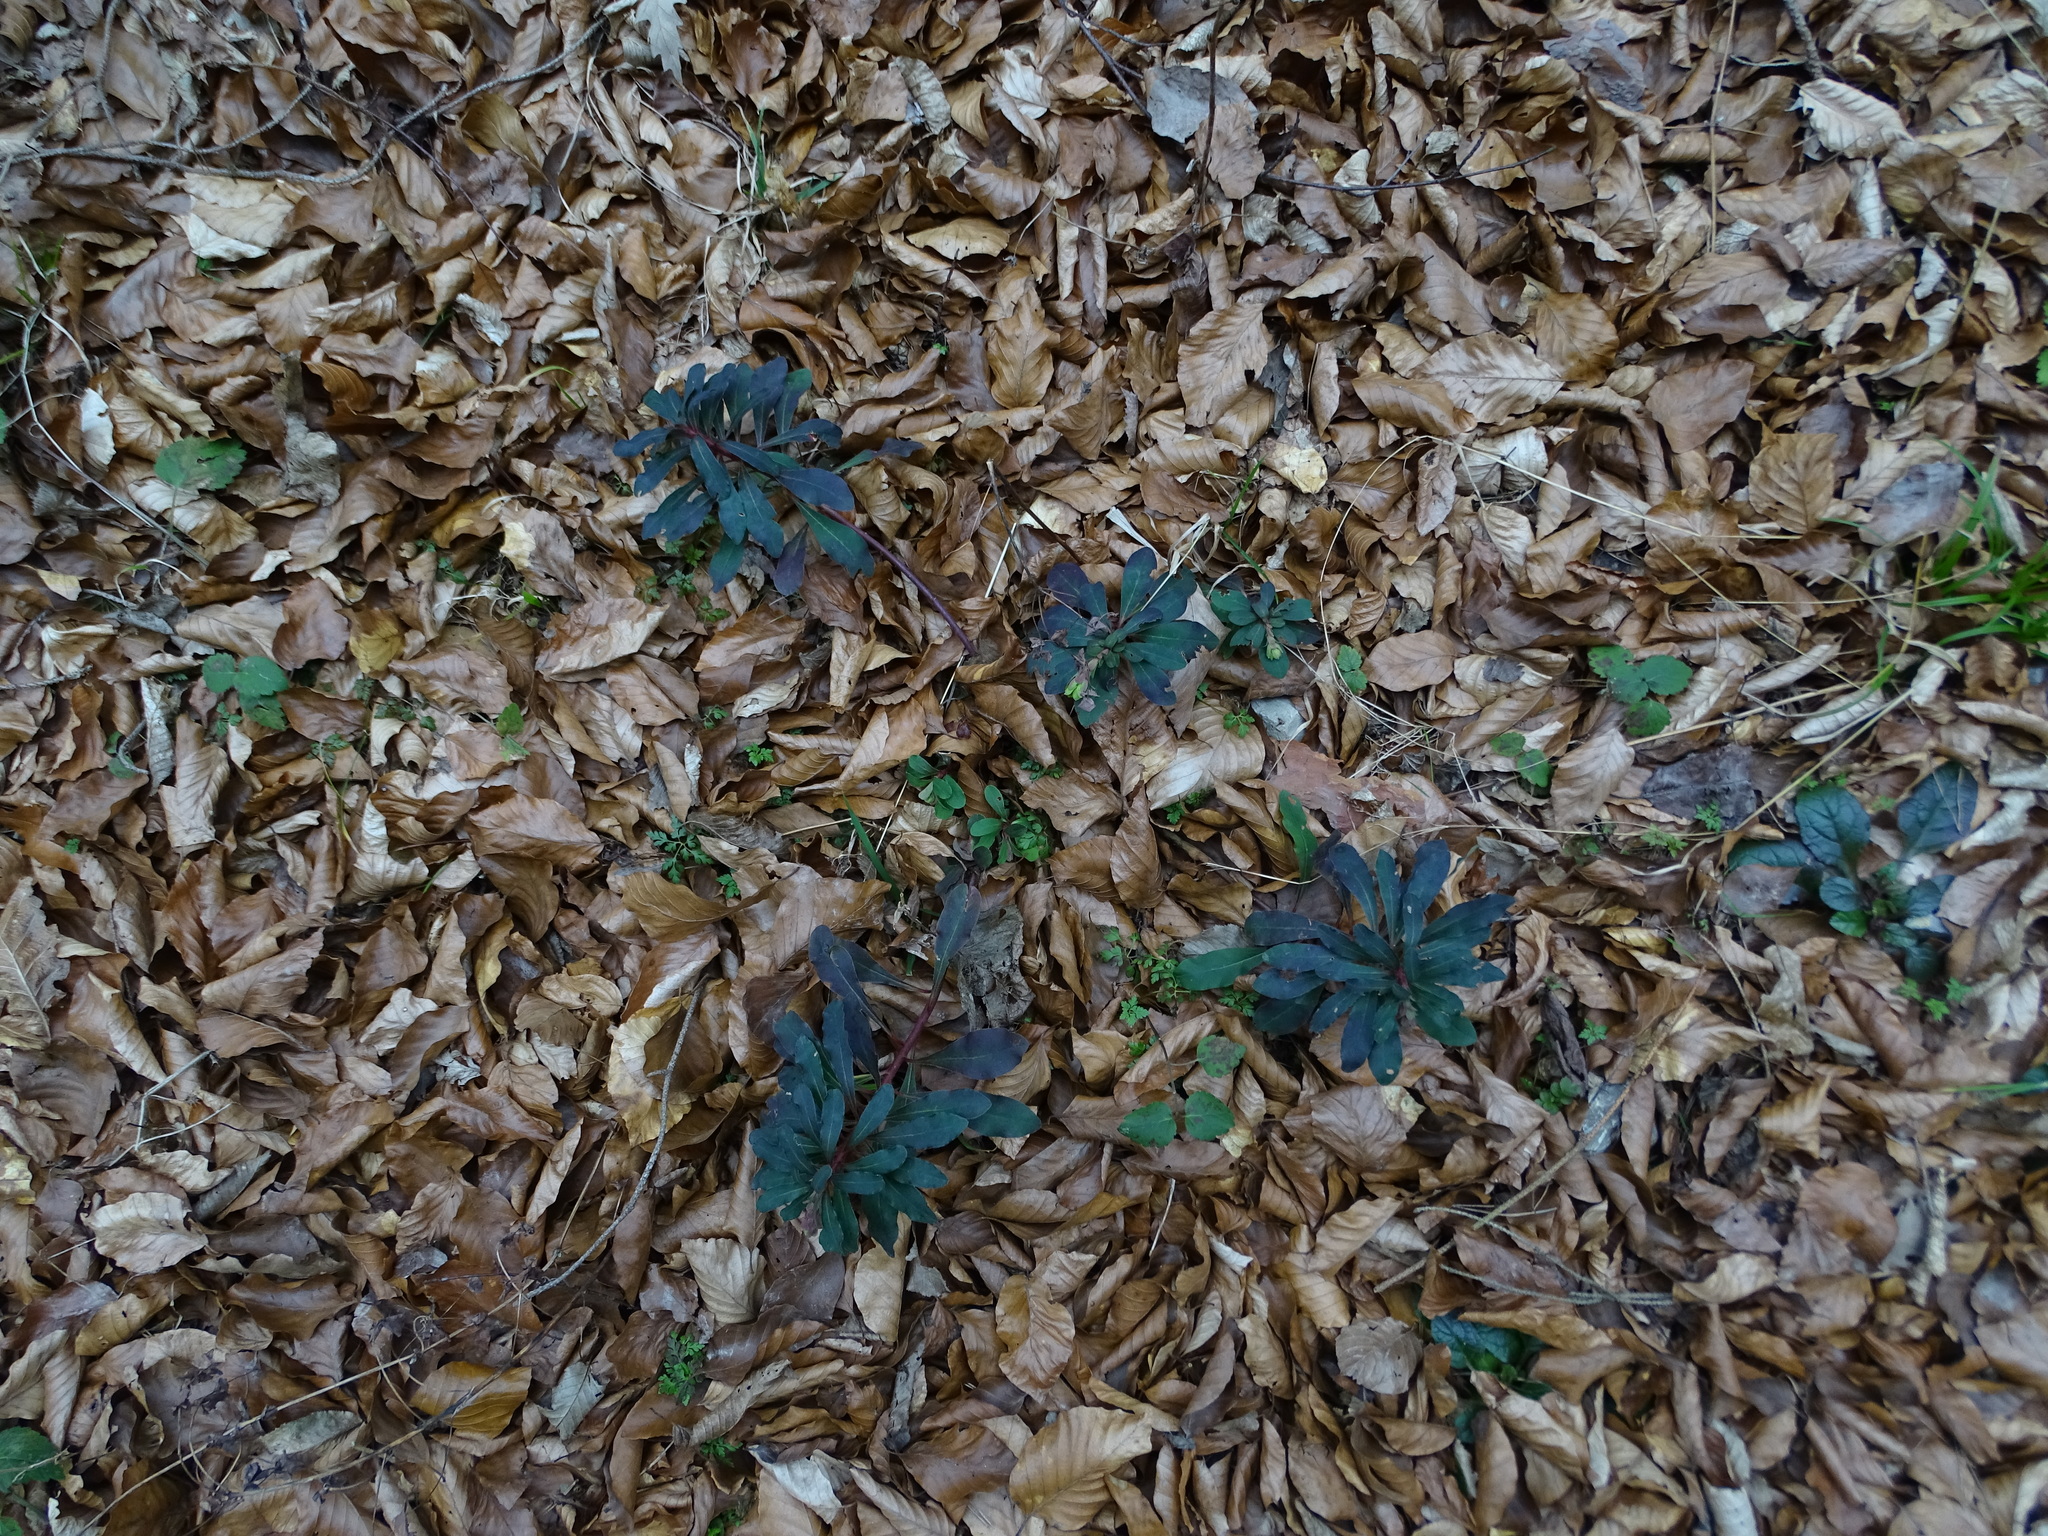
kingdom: Plantae
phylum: Tracheophyta
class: Magnoliopsida
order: Malpighiales
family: Euphorbiaceae
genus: Euphorbia
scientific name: Euphorbia amygdaloides
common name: Wood spurge
